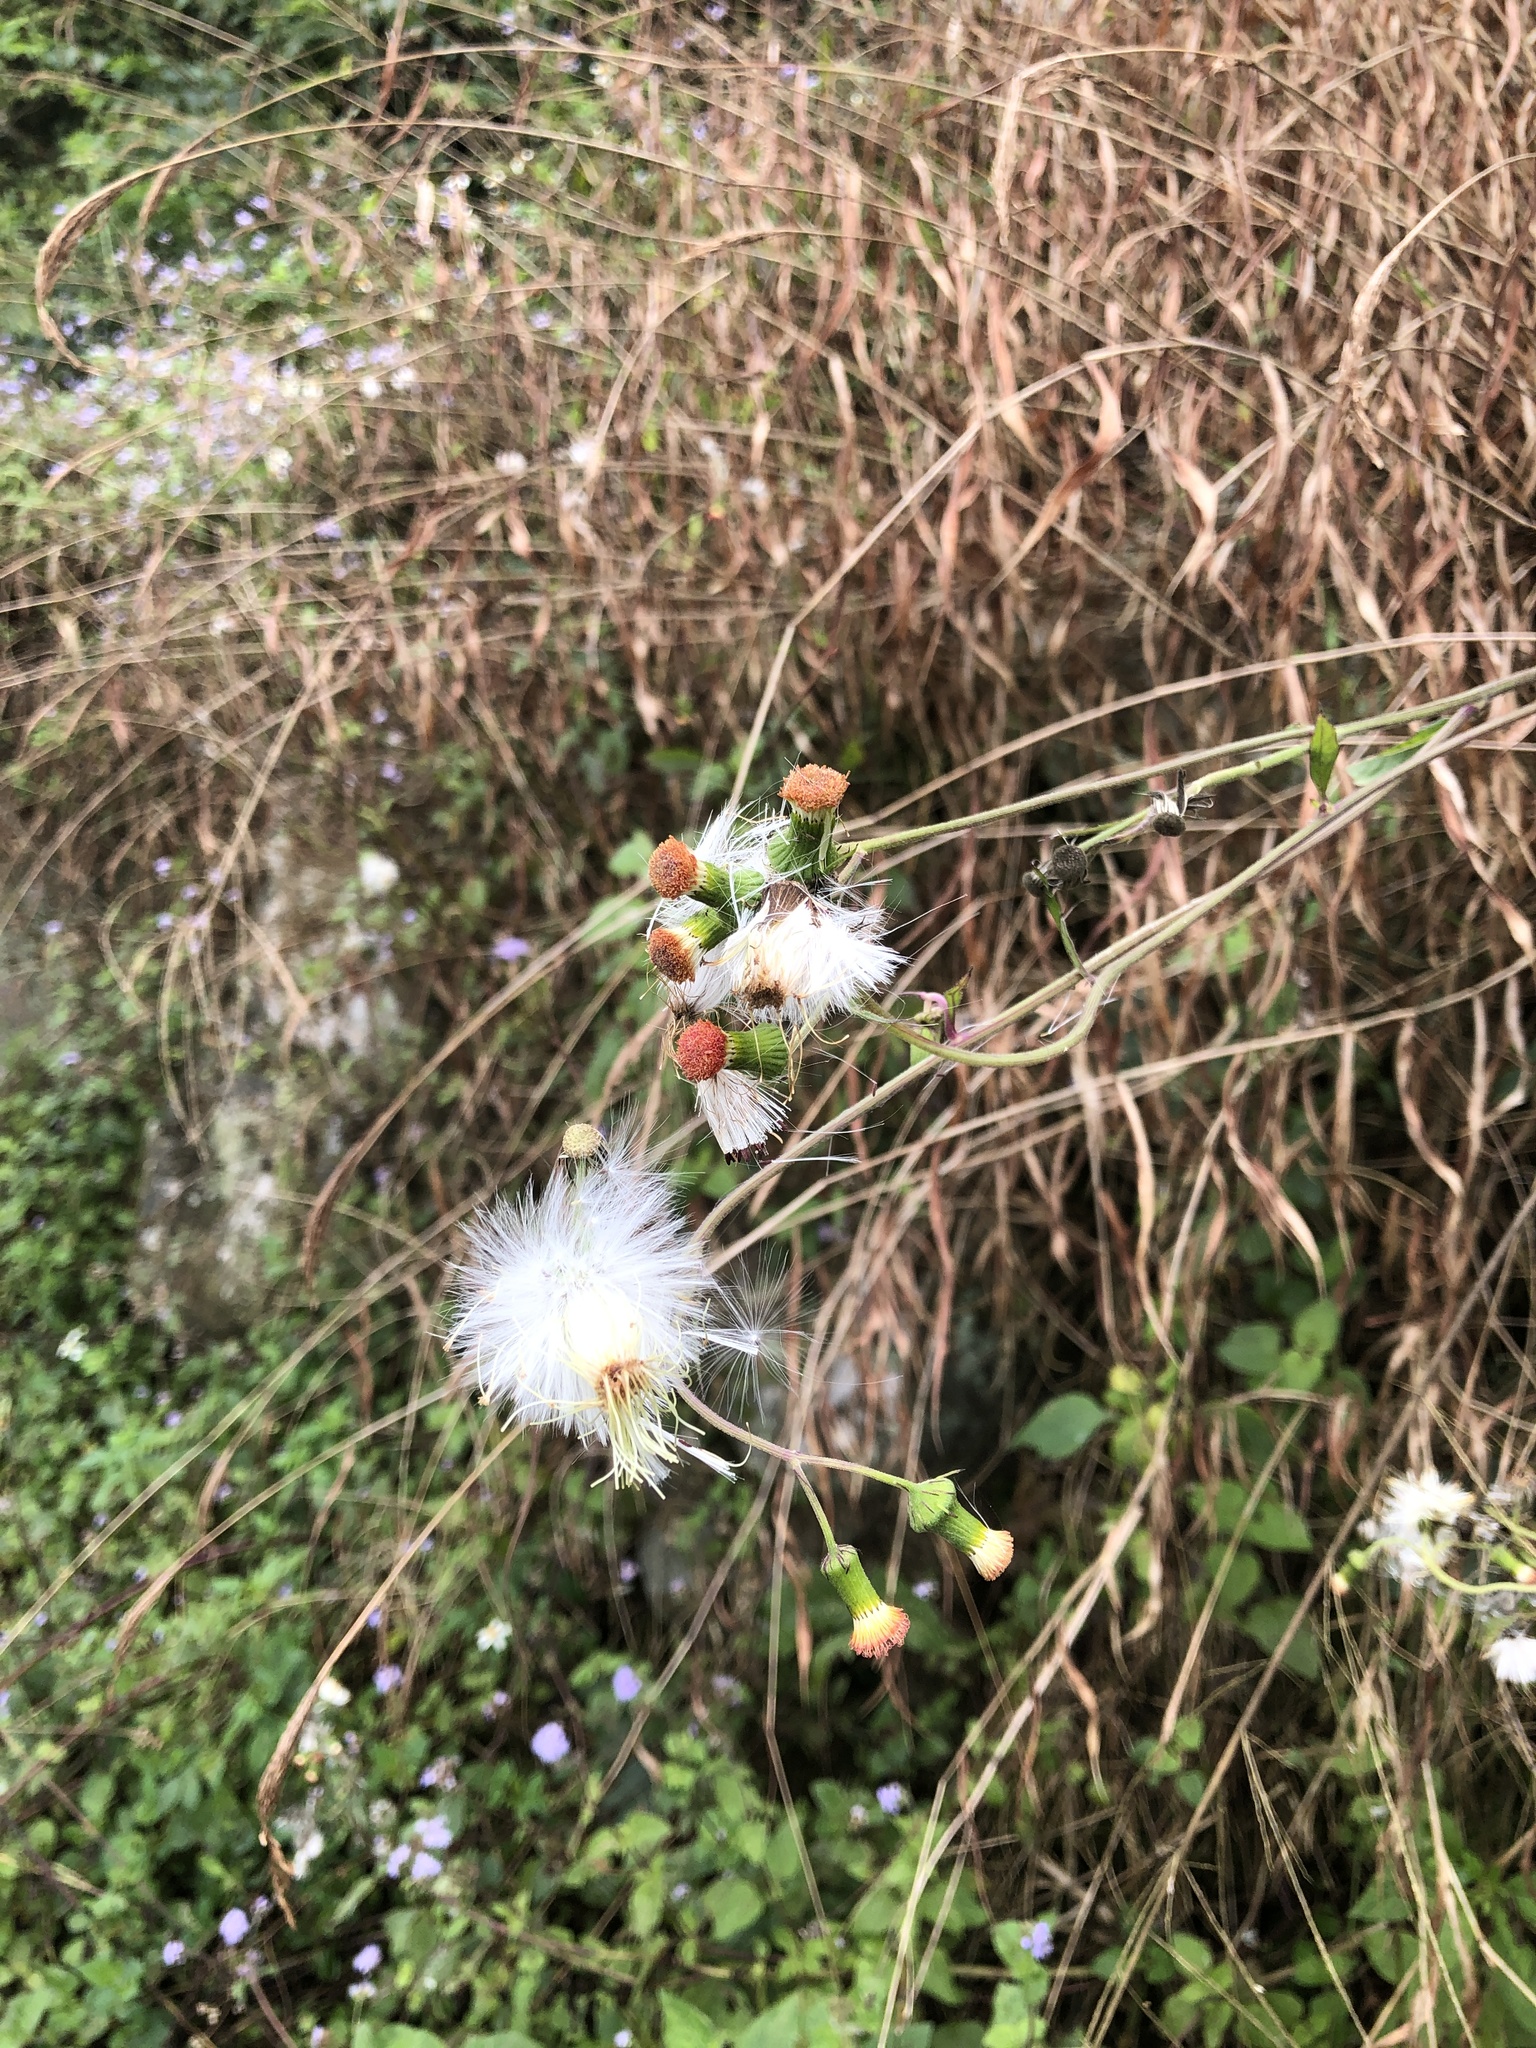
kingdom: Plantae
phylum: Tracheophyta
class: Magnoliopsida
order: Asterales
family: Asteraceae
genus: Crassocephalum
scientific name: Crassocephalum crepidioides
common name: Redflower ragleaf
